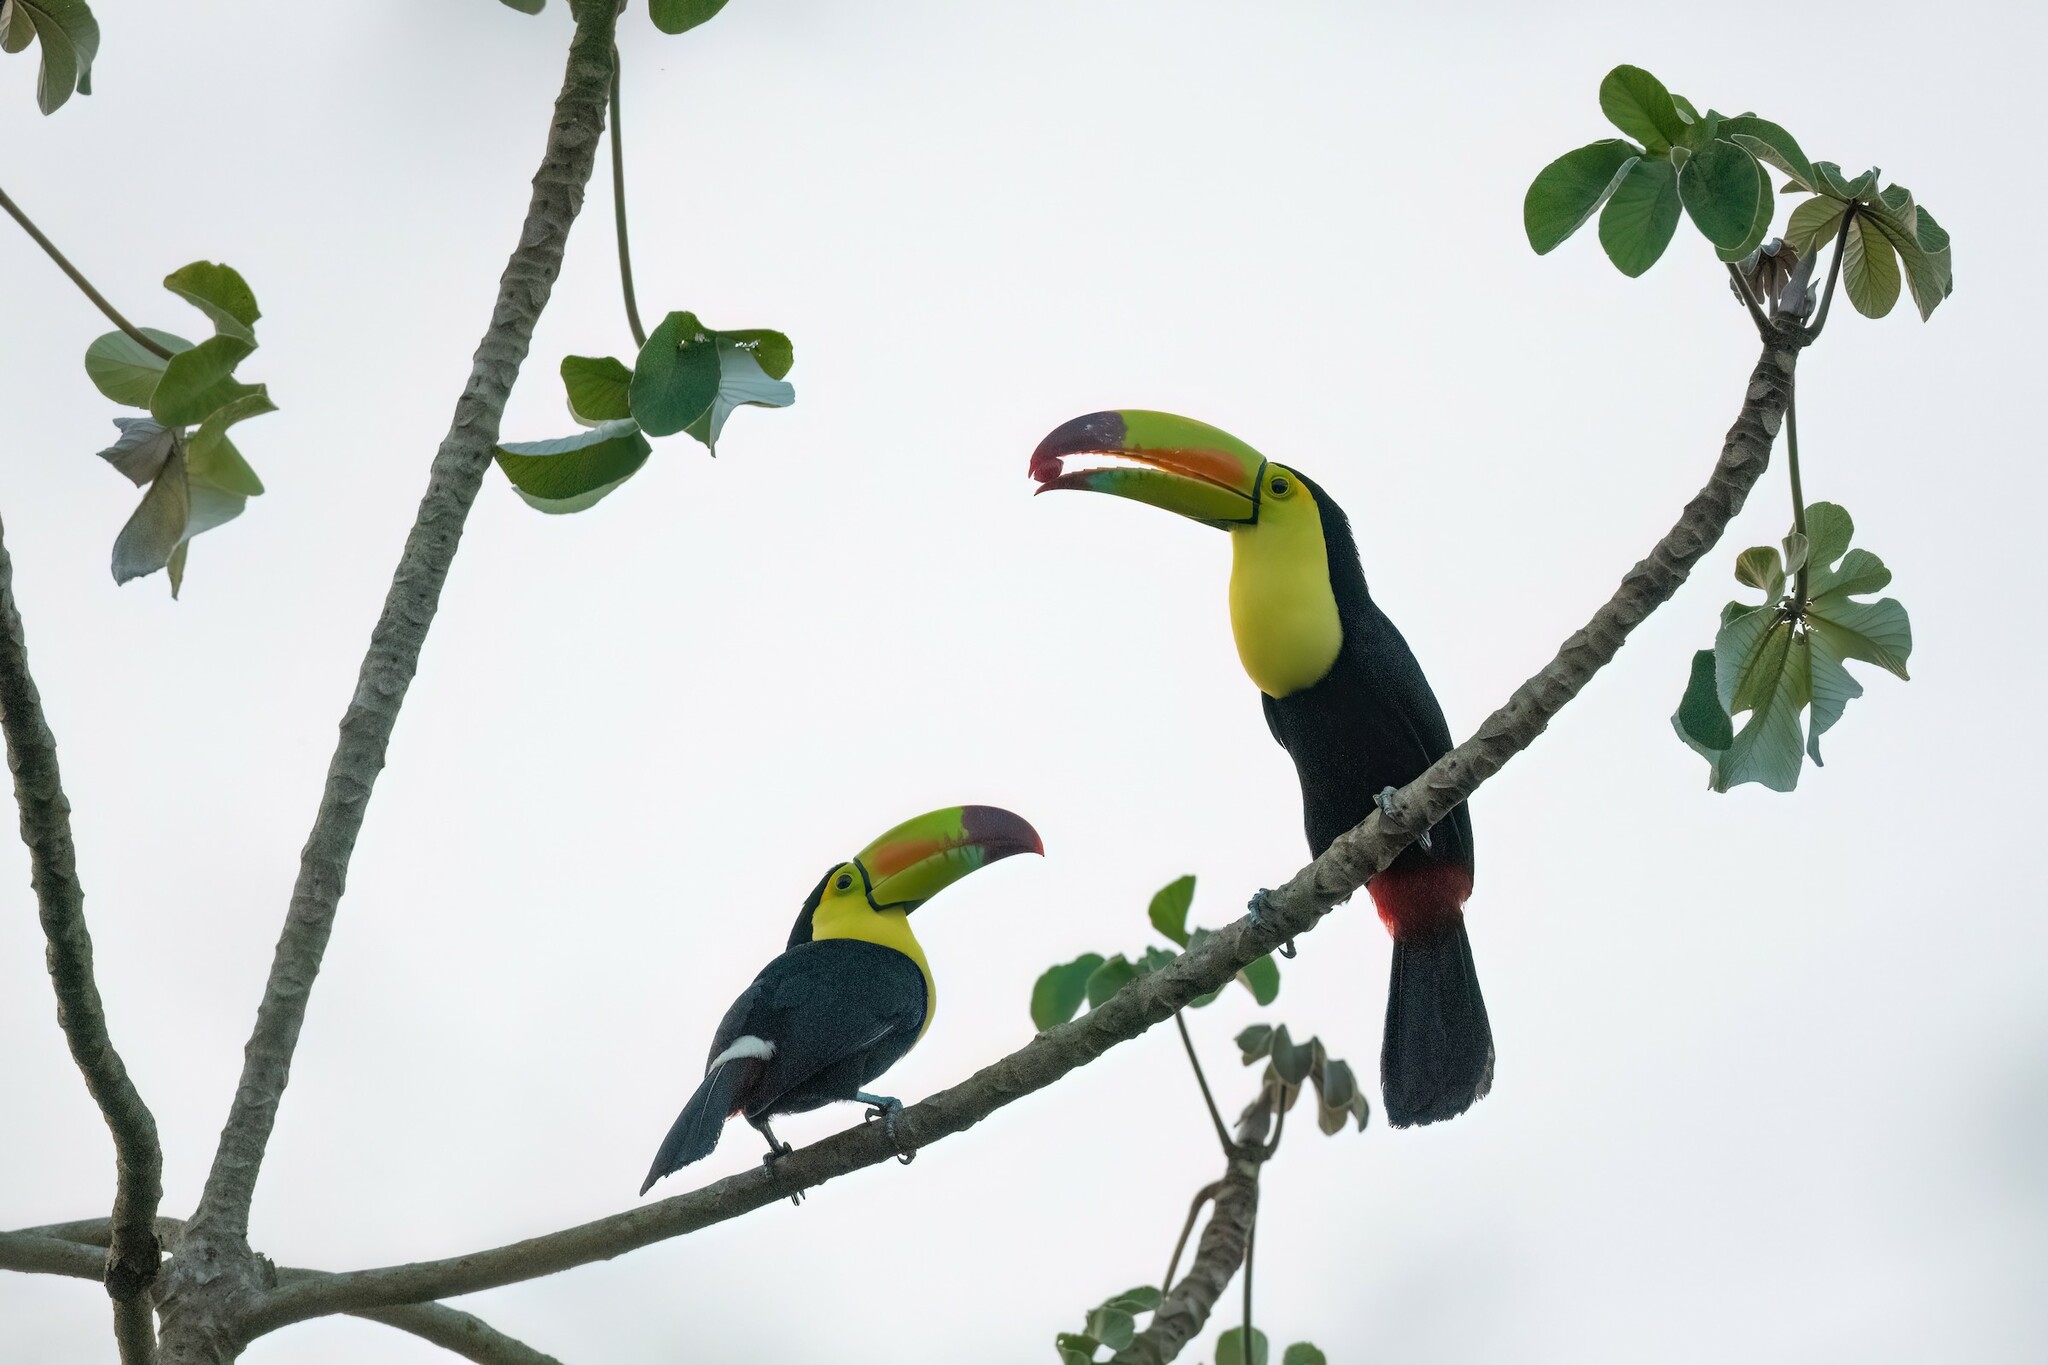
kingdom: Animalia
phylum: Chordata
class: Aves
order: Piciformes
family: Ramphastidae
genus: Ramphastos
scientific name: Ramphastos sulfuratus
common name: Keel-billed toucan
